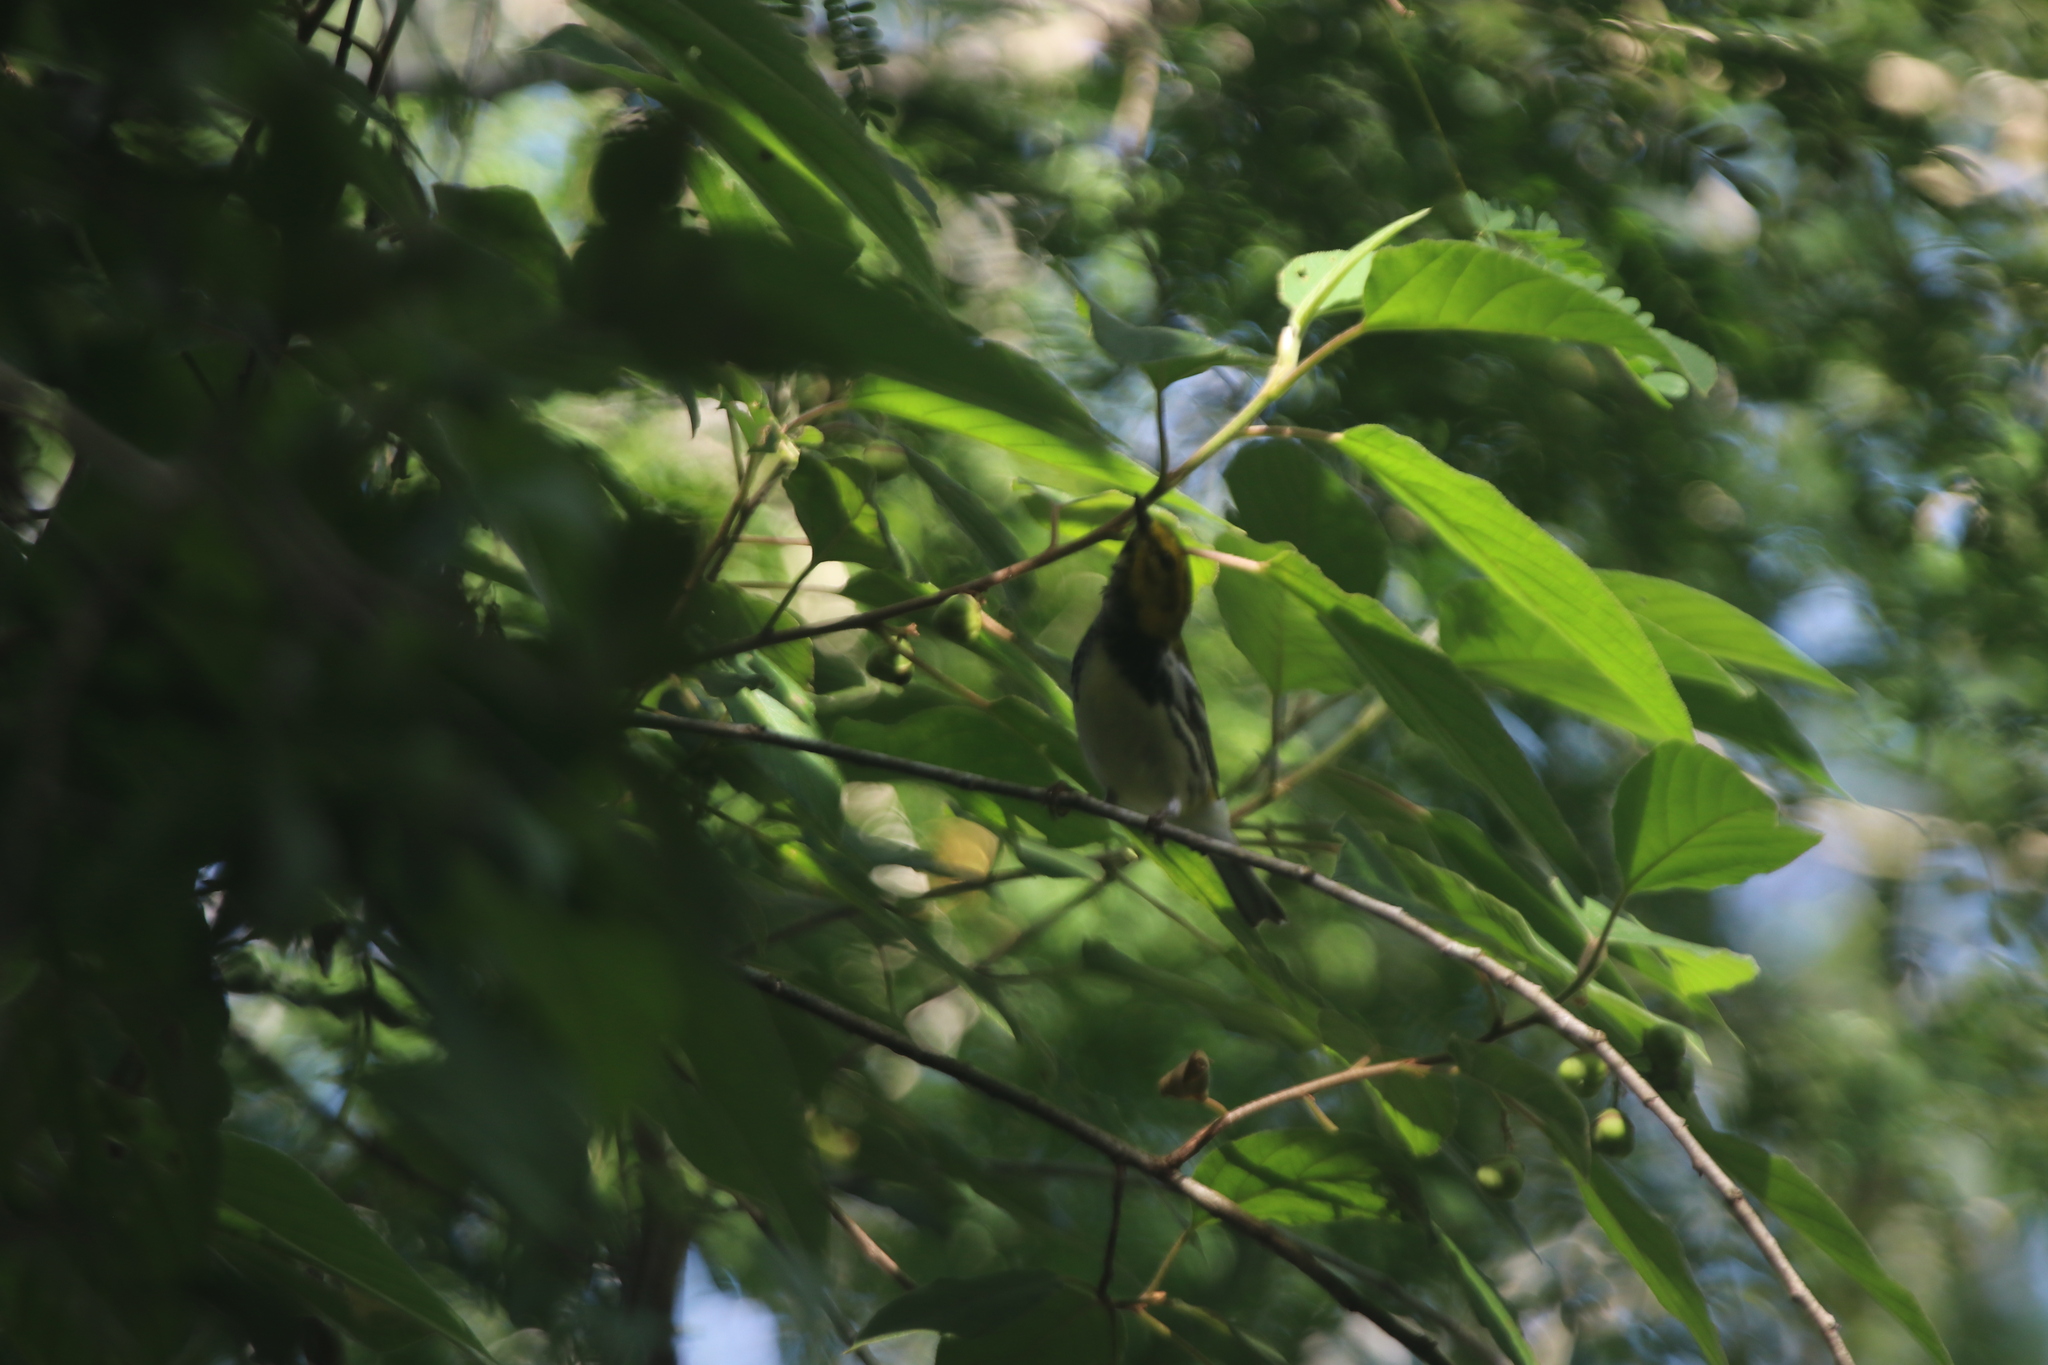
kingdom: Animalia
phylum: Chordata
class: Aves
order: Passeriformes
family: Parulidae
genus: Setophaga
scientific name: Setophaga virens
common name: Black-throated green warbler
